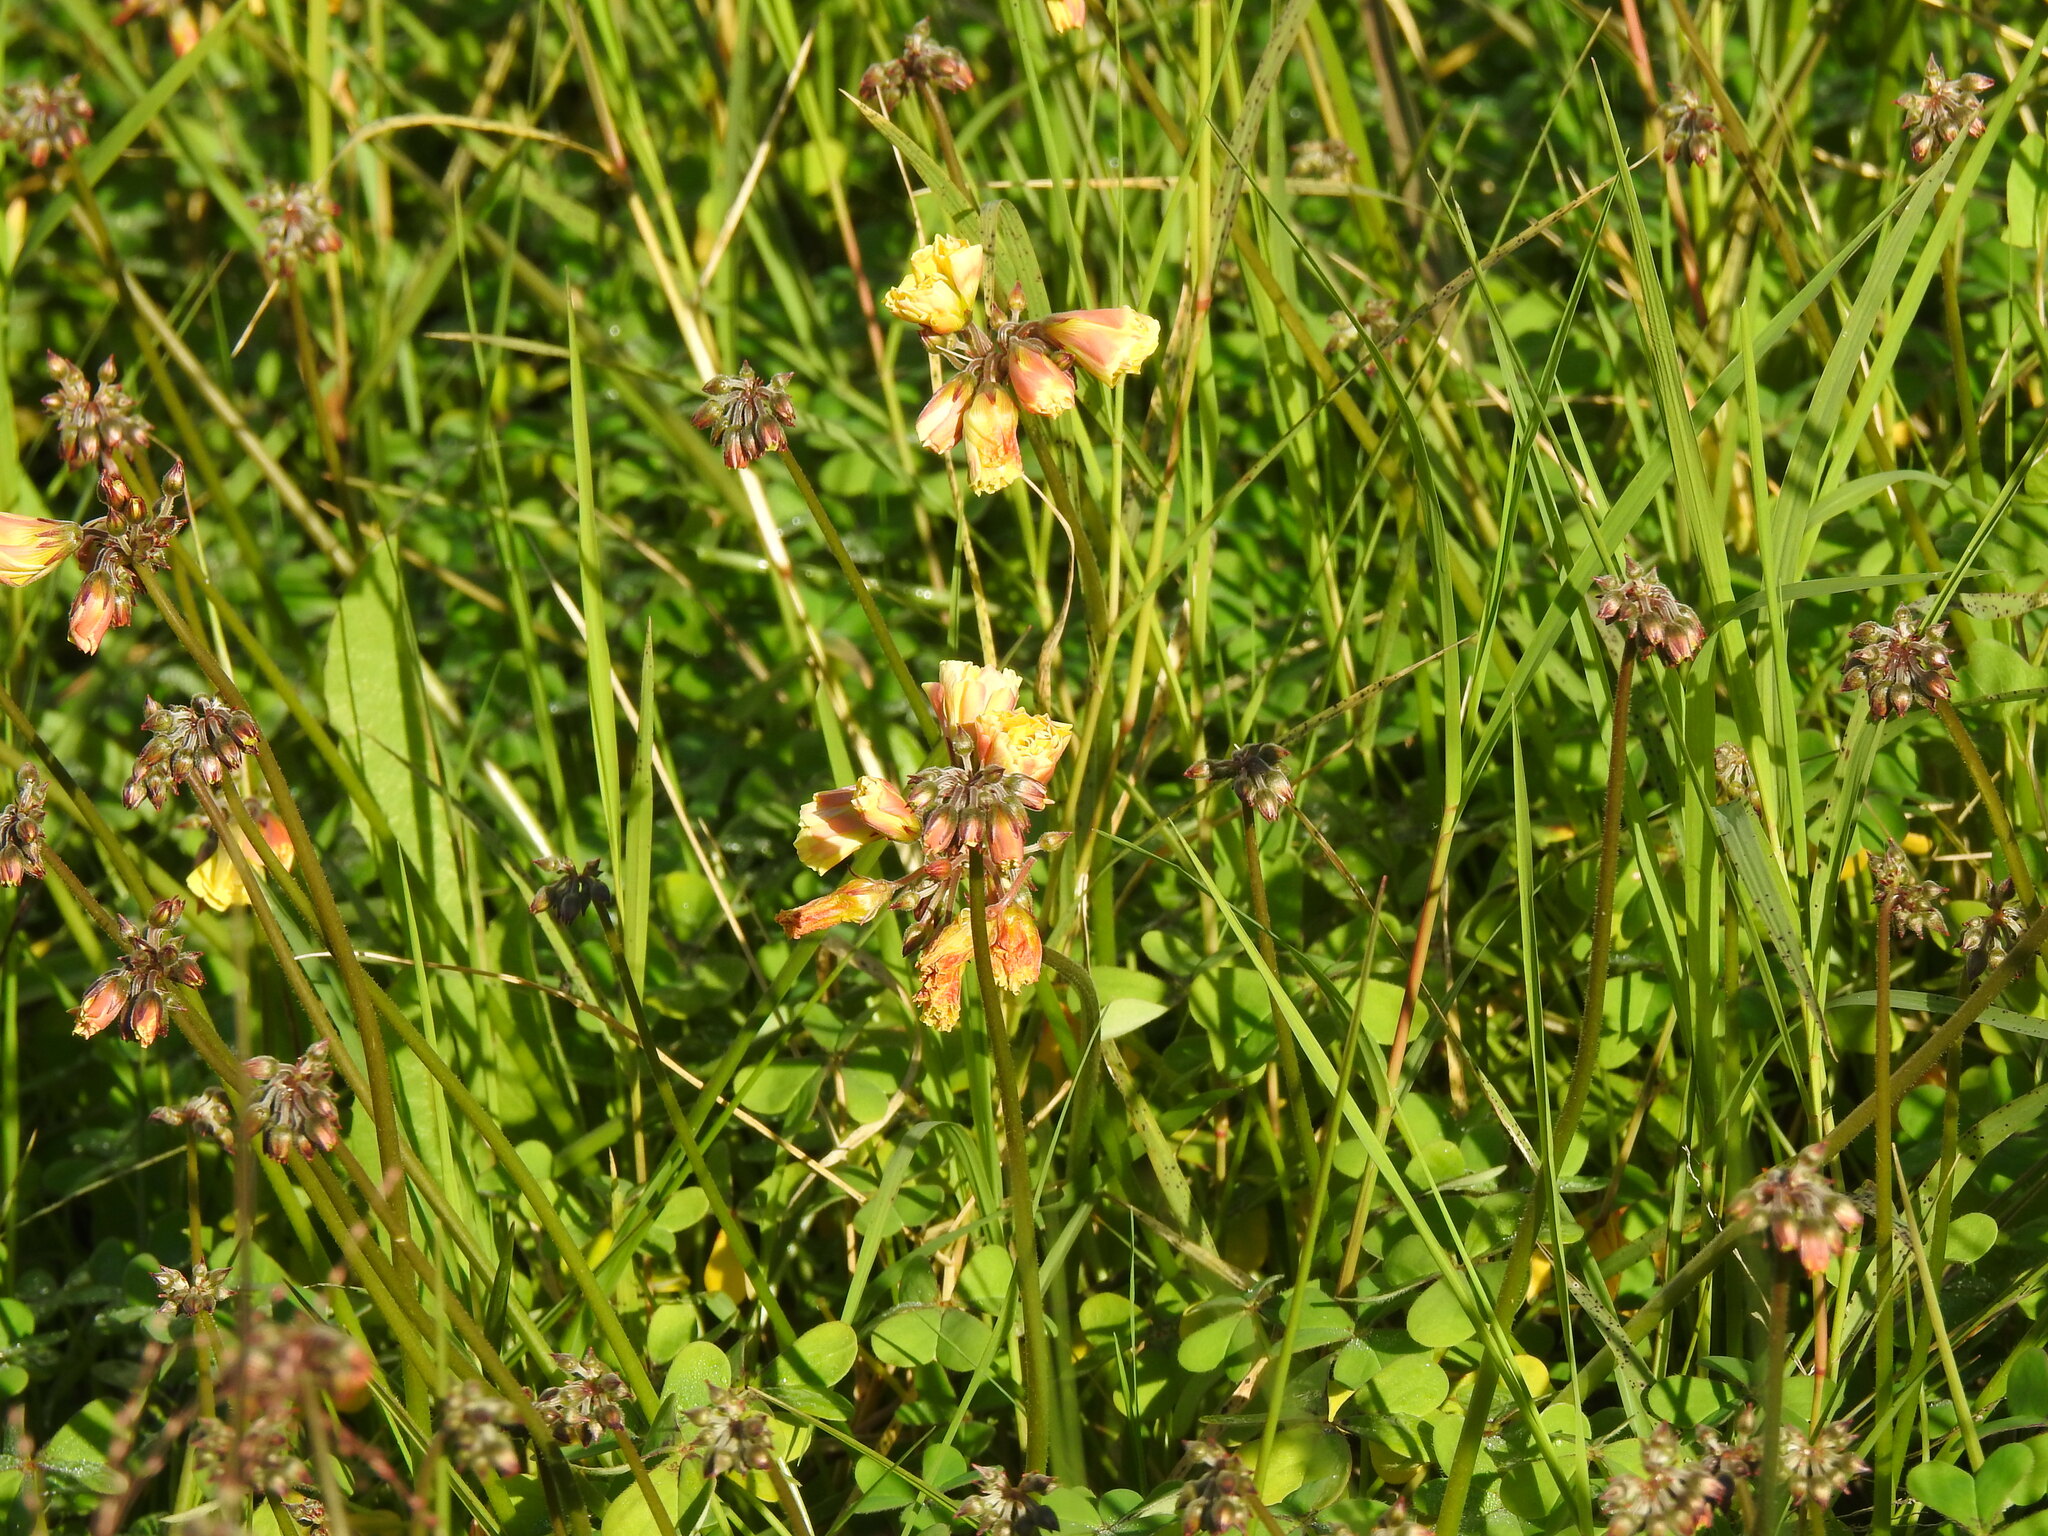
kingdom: Plantae
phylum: Tracheophyta
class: Magnoliopsida
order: Oxalidales
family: Oxalidaceae
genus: Oxalis
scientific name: Oxalis pes-caprae
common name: Bermuda-buttercup
